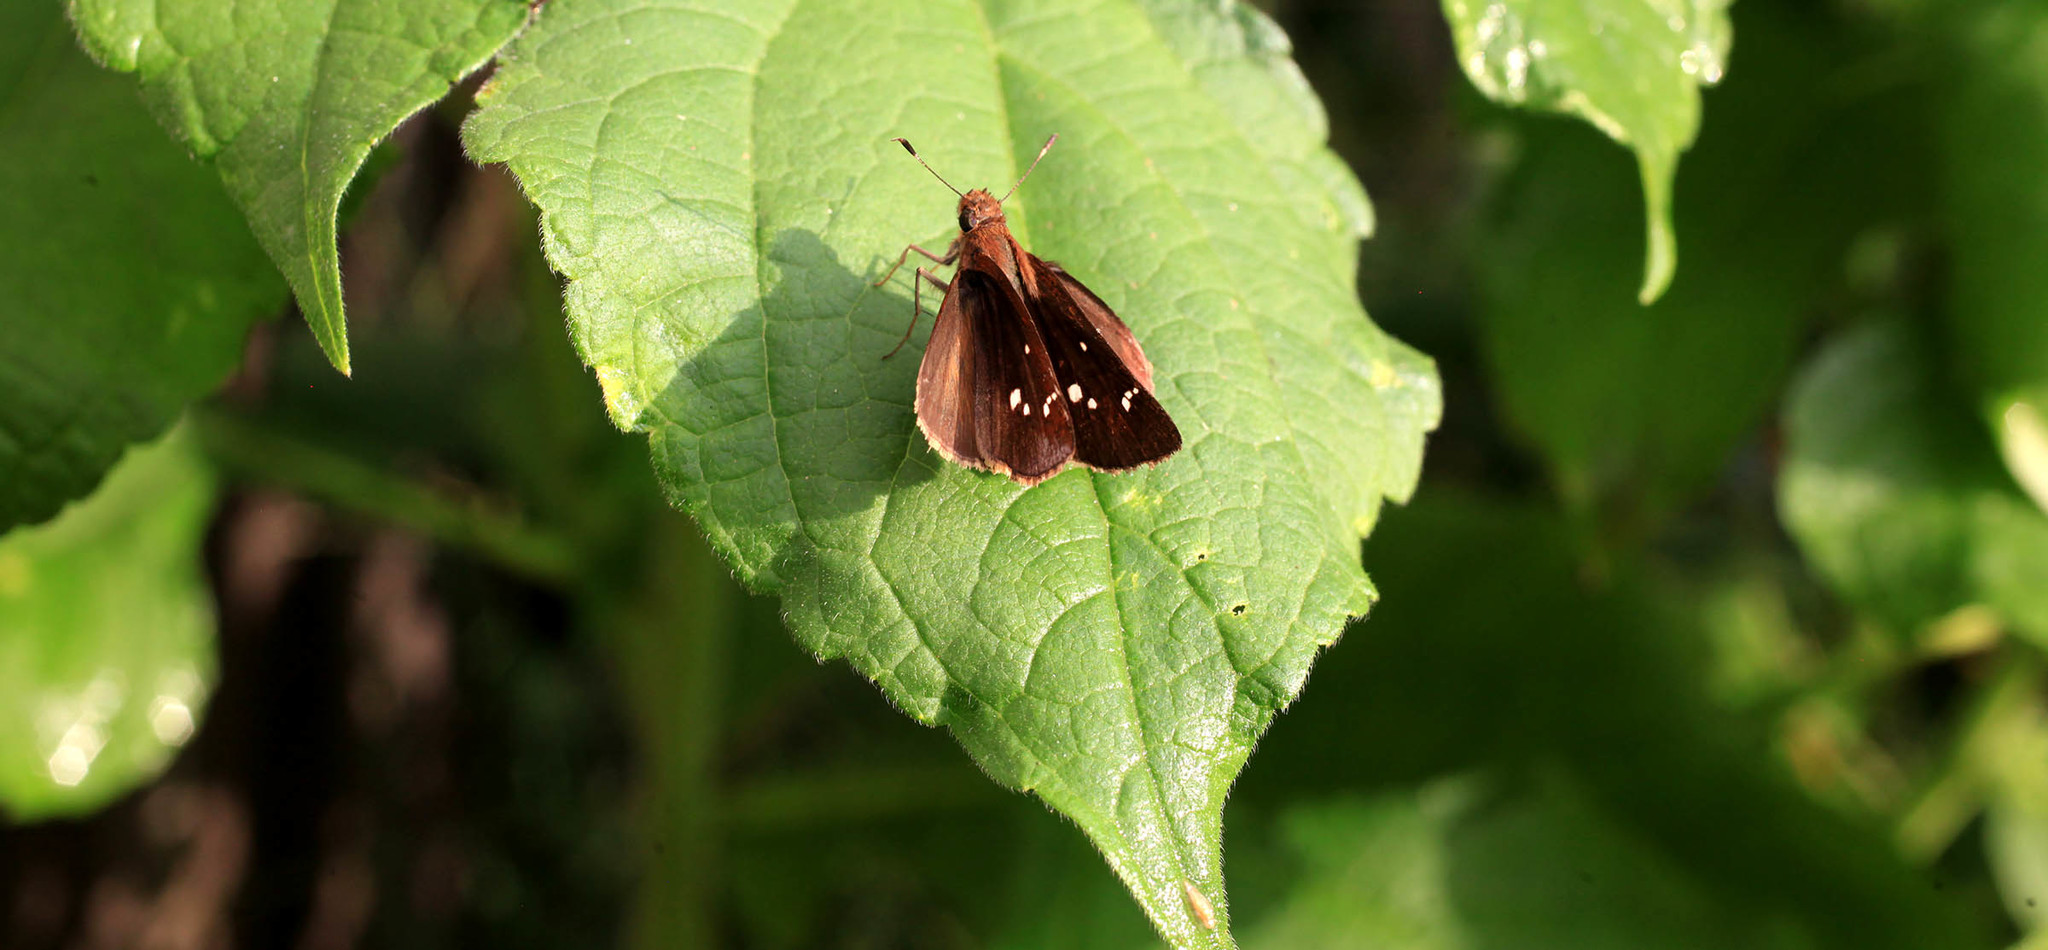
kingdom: Animalia
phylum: Arthropoda
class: Insecta
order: Lepidoptera
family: Hesperiidae
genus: Lerema
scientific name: Lerema accius
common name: Clouded skipper
